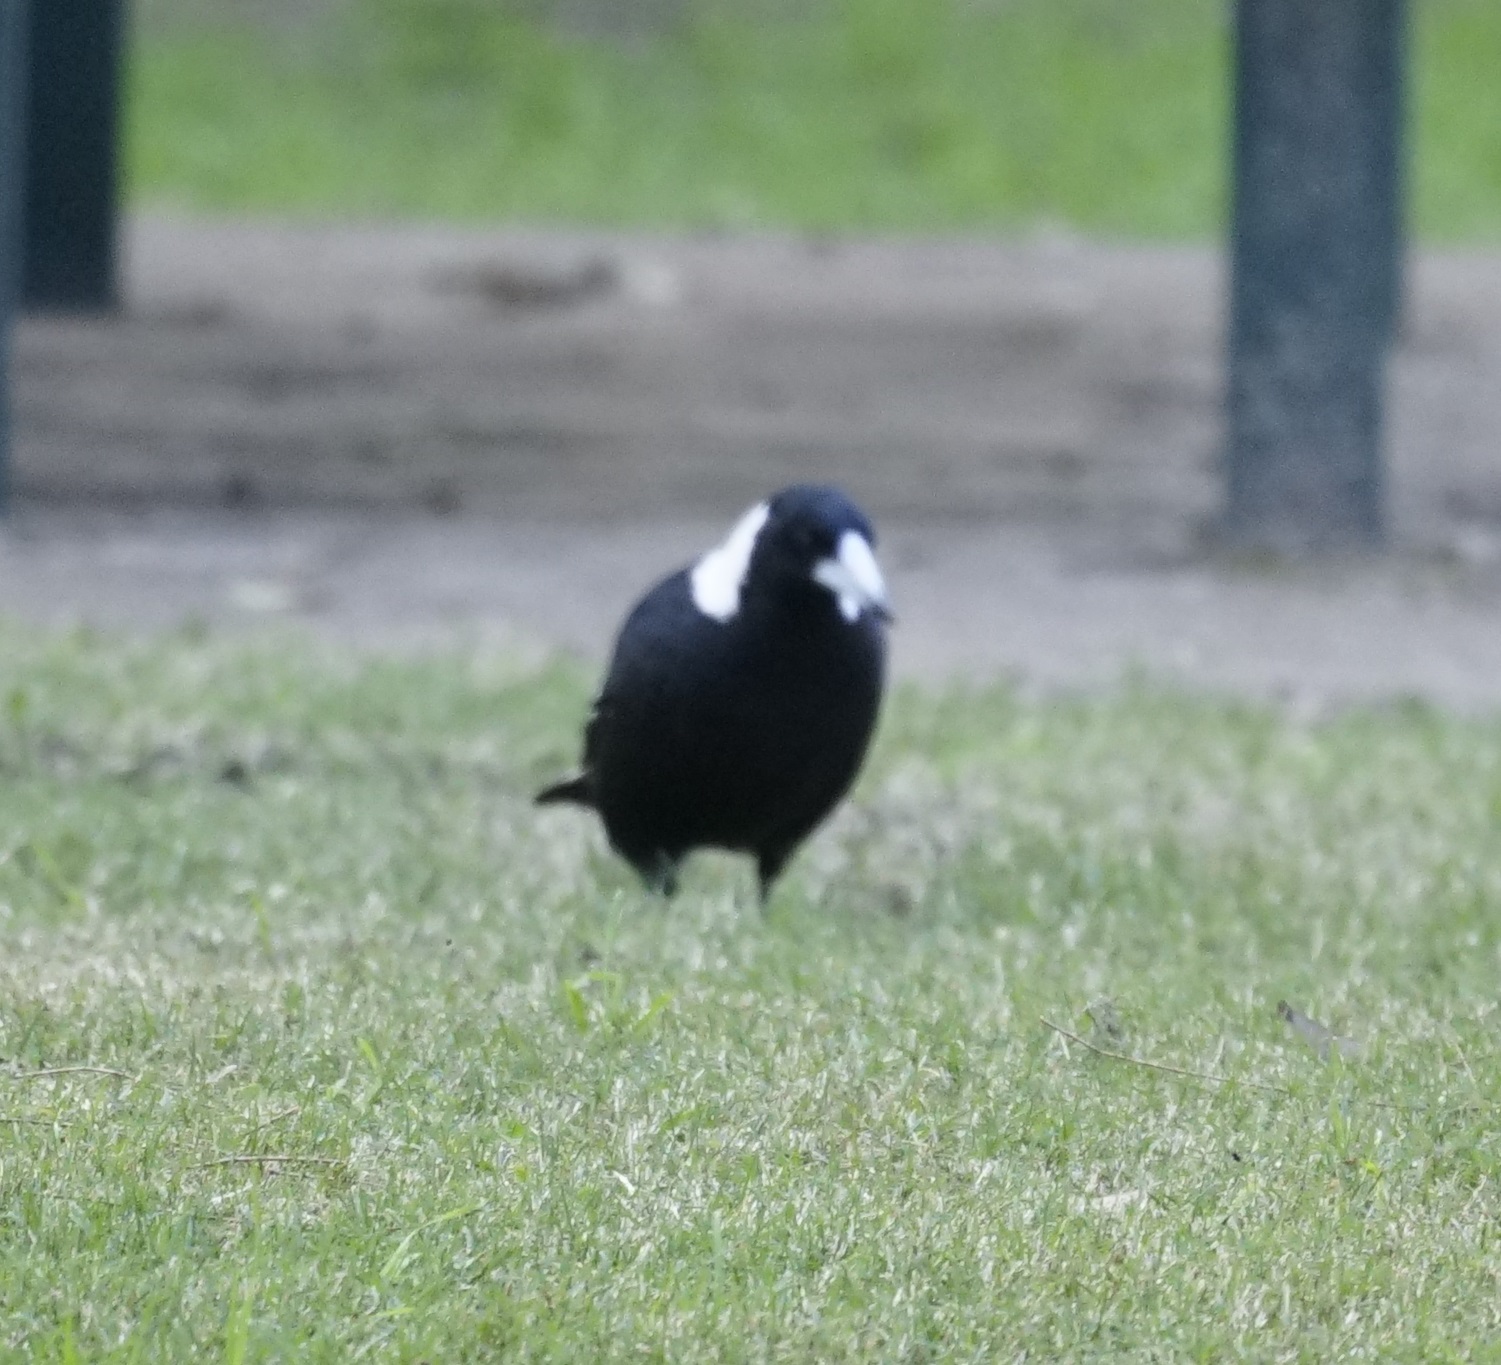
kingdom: Animalia
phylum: Chordata
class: Aves
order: Passeriformes
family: Cracticidae
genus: Gymnorhina
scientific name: Gymnorhina tibicen
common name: Australian magpie
